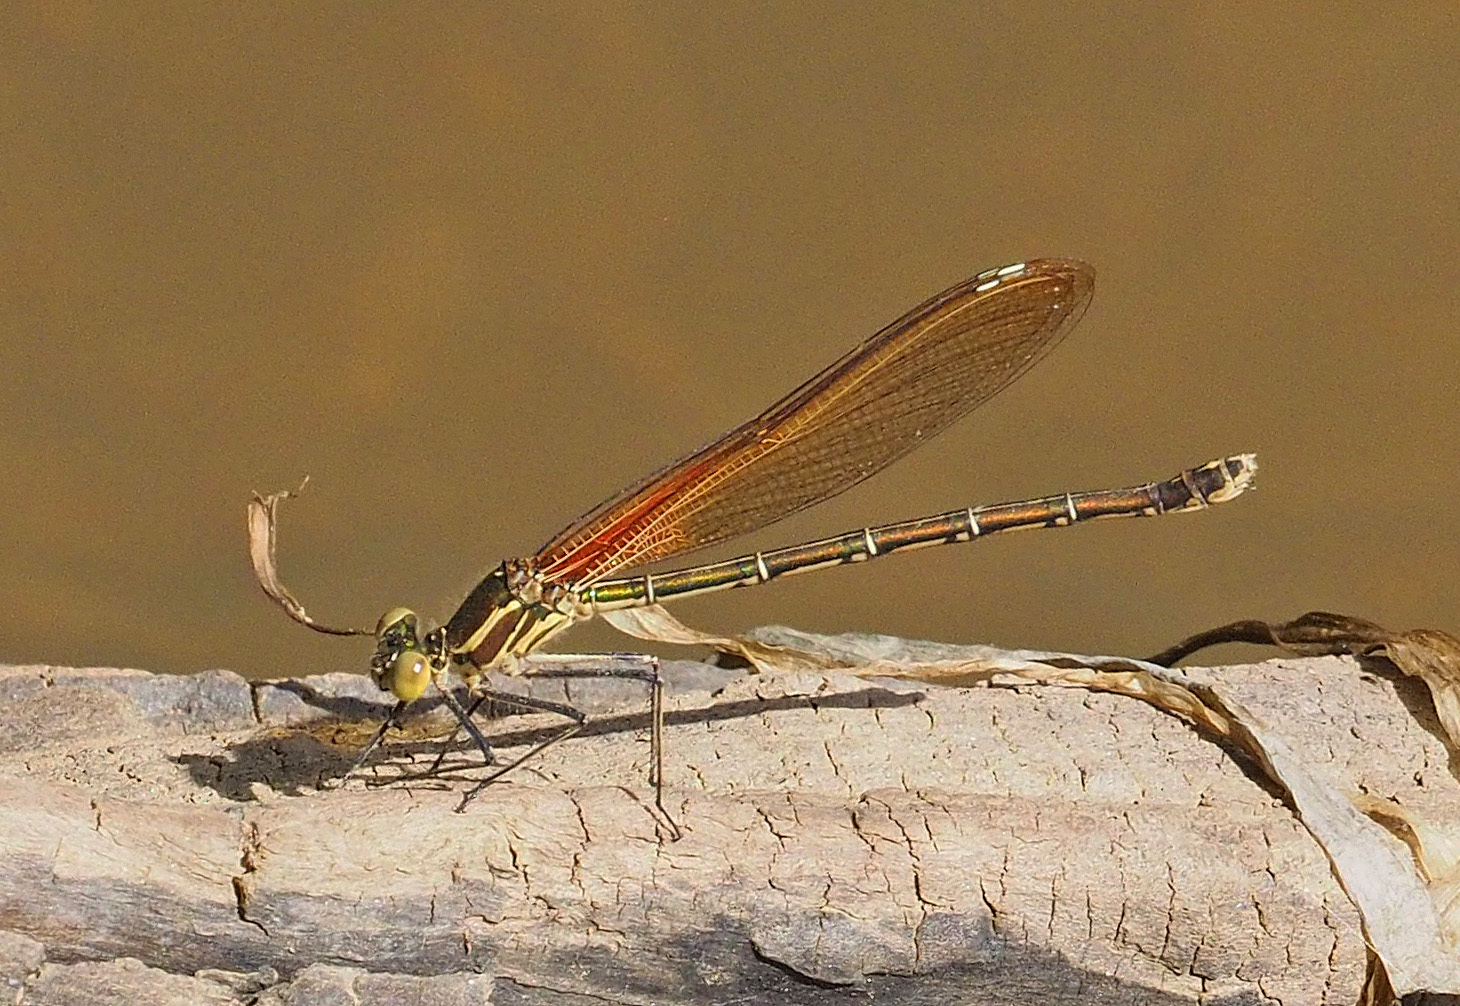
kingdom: Animalia
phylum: Arthropoda
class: Insecta
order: Odonata
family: Calopterygidae
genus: Hetaerina
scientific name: Hetaerina americana
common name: American rubyspot
